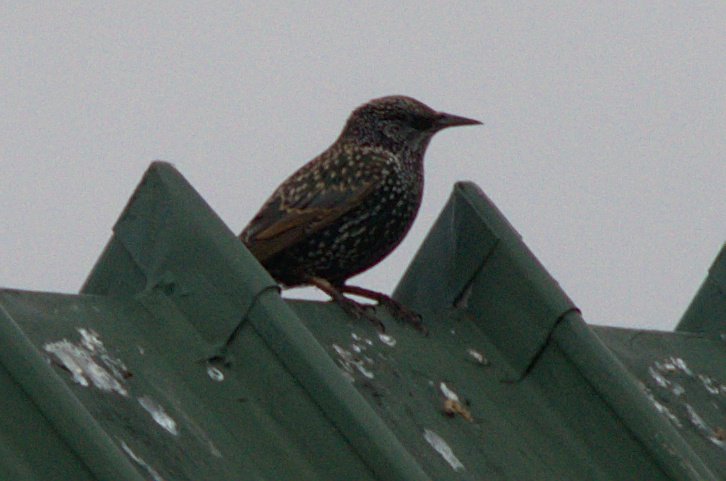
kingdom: Animalia
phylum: Chordata
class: Aves
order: Passeriformes
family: Sturnidae
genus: Sturnus
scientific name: Sturnus vulgaris
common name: Common starling
